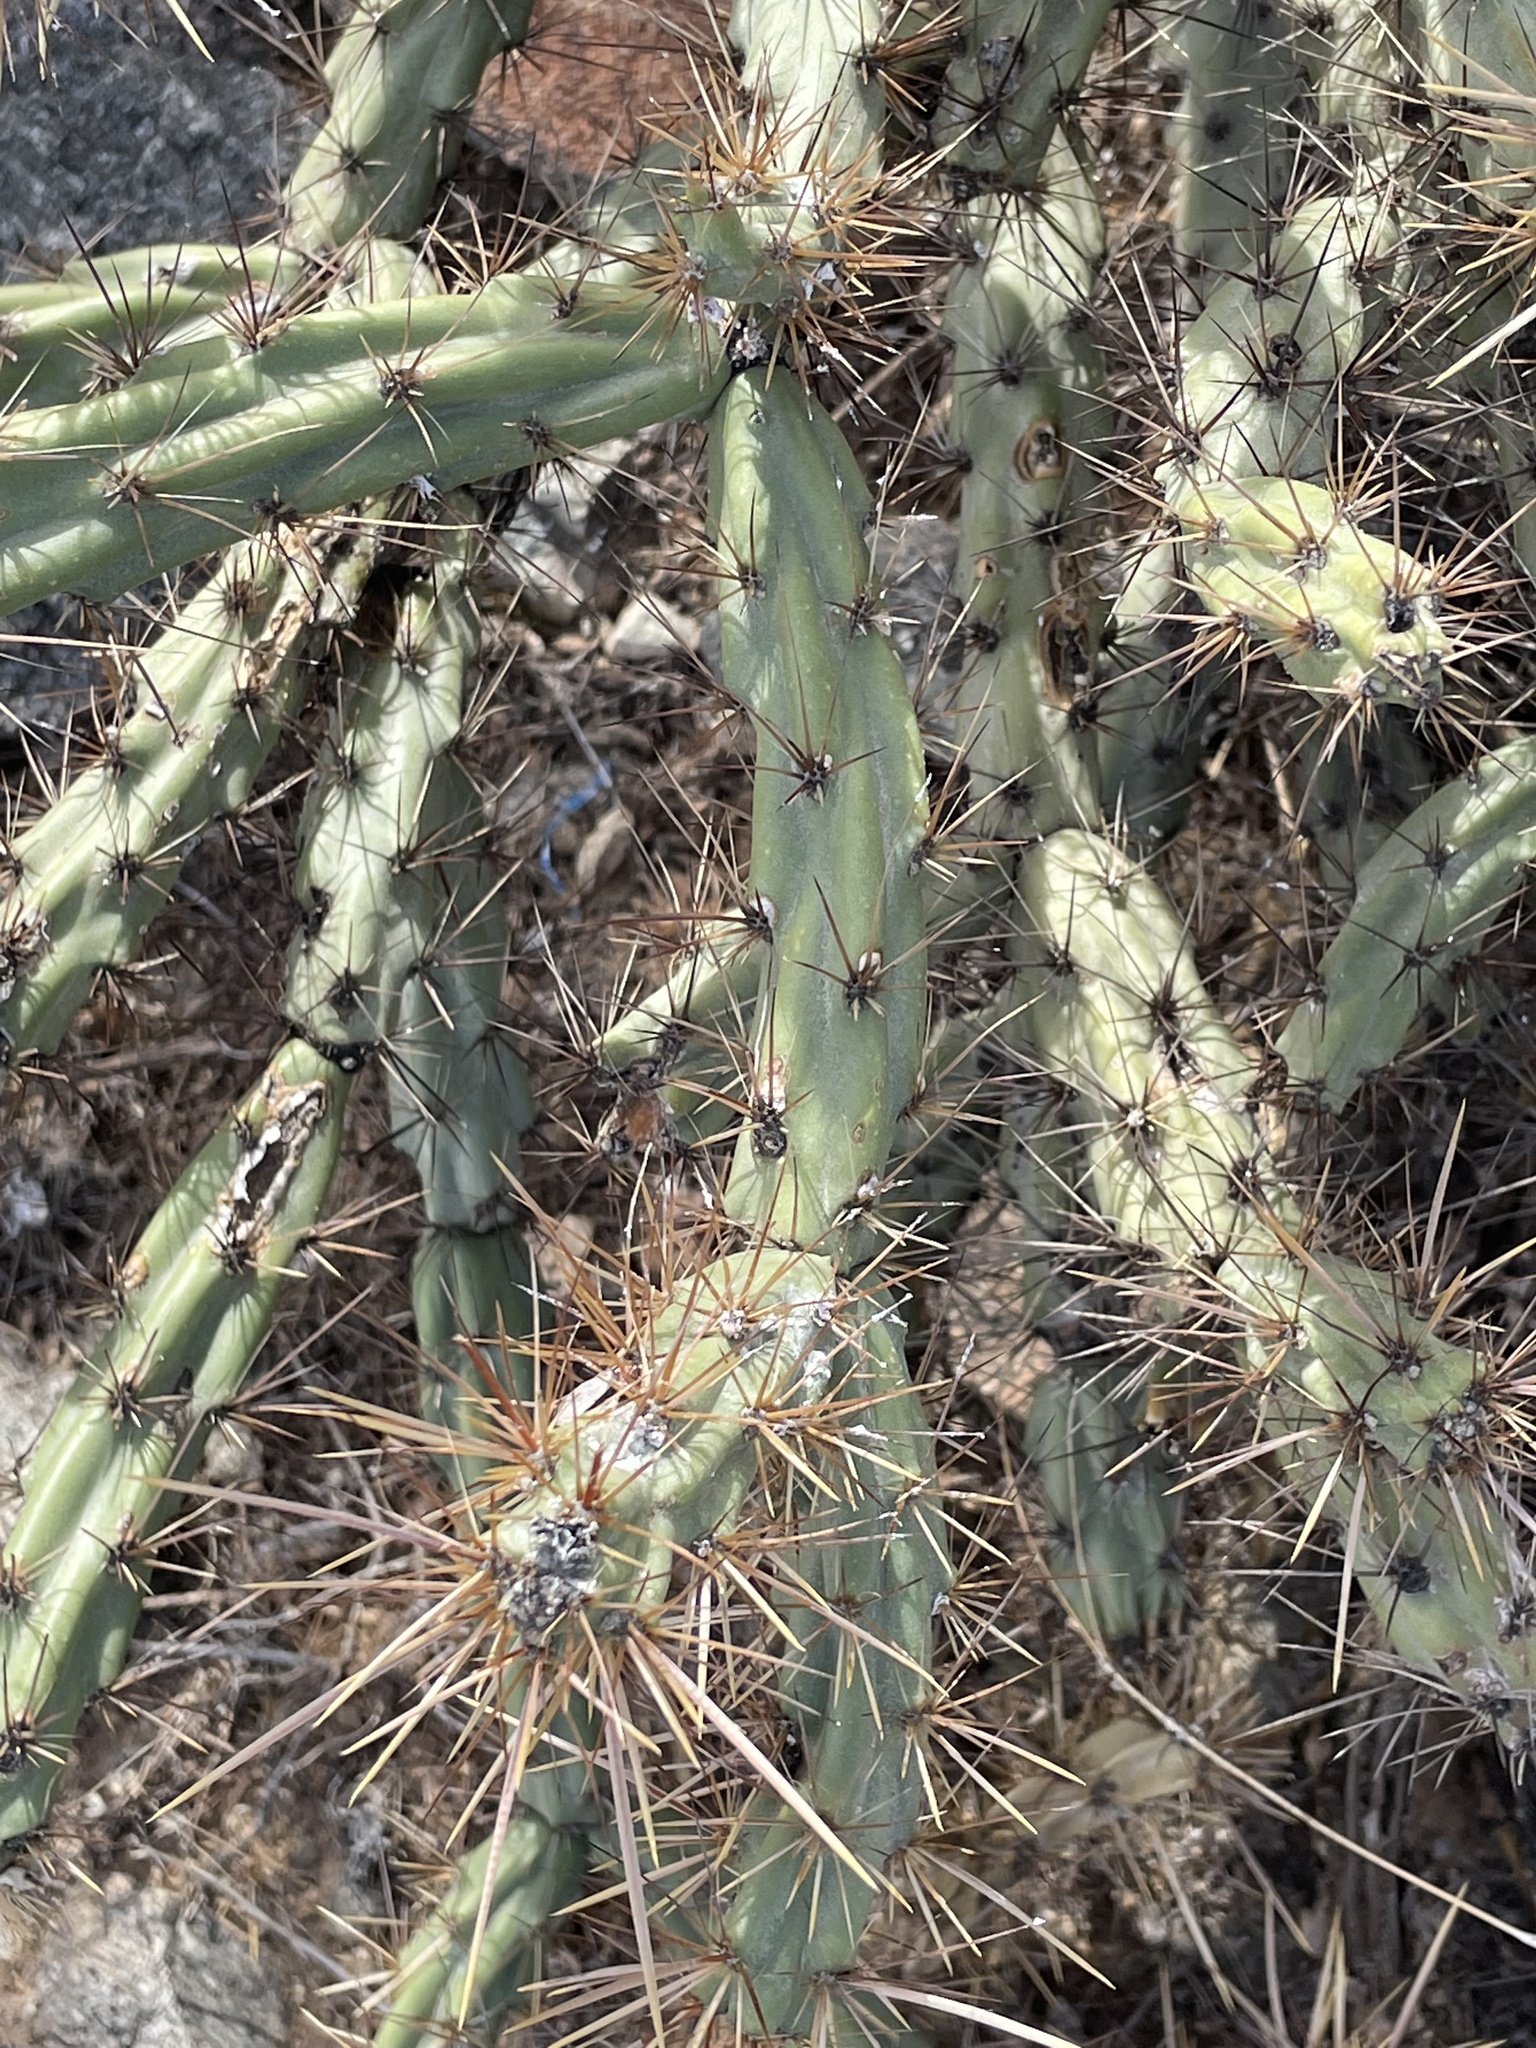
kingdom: Plantae
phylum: Tracheophyta
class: Magnoliopsida
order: Caryophyllales
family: Cactaceae
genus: Cylindropuntia
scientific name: Cylindropuntia acanthocarpa
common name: Buckhorn cholla
